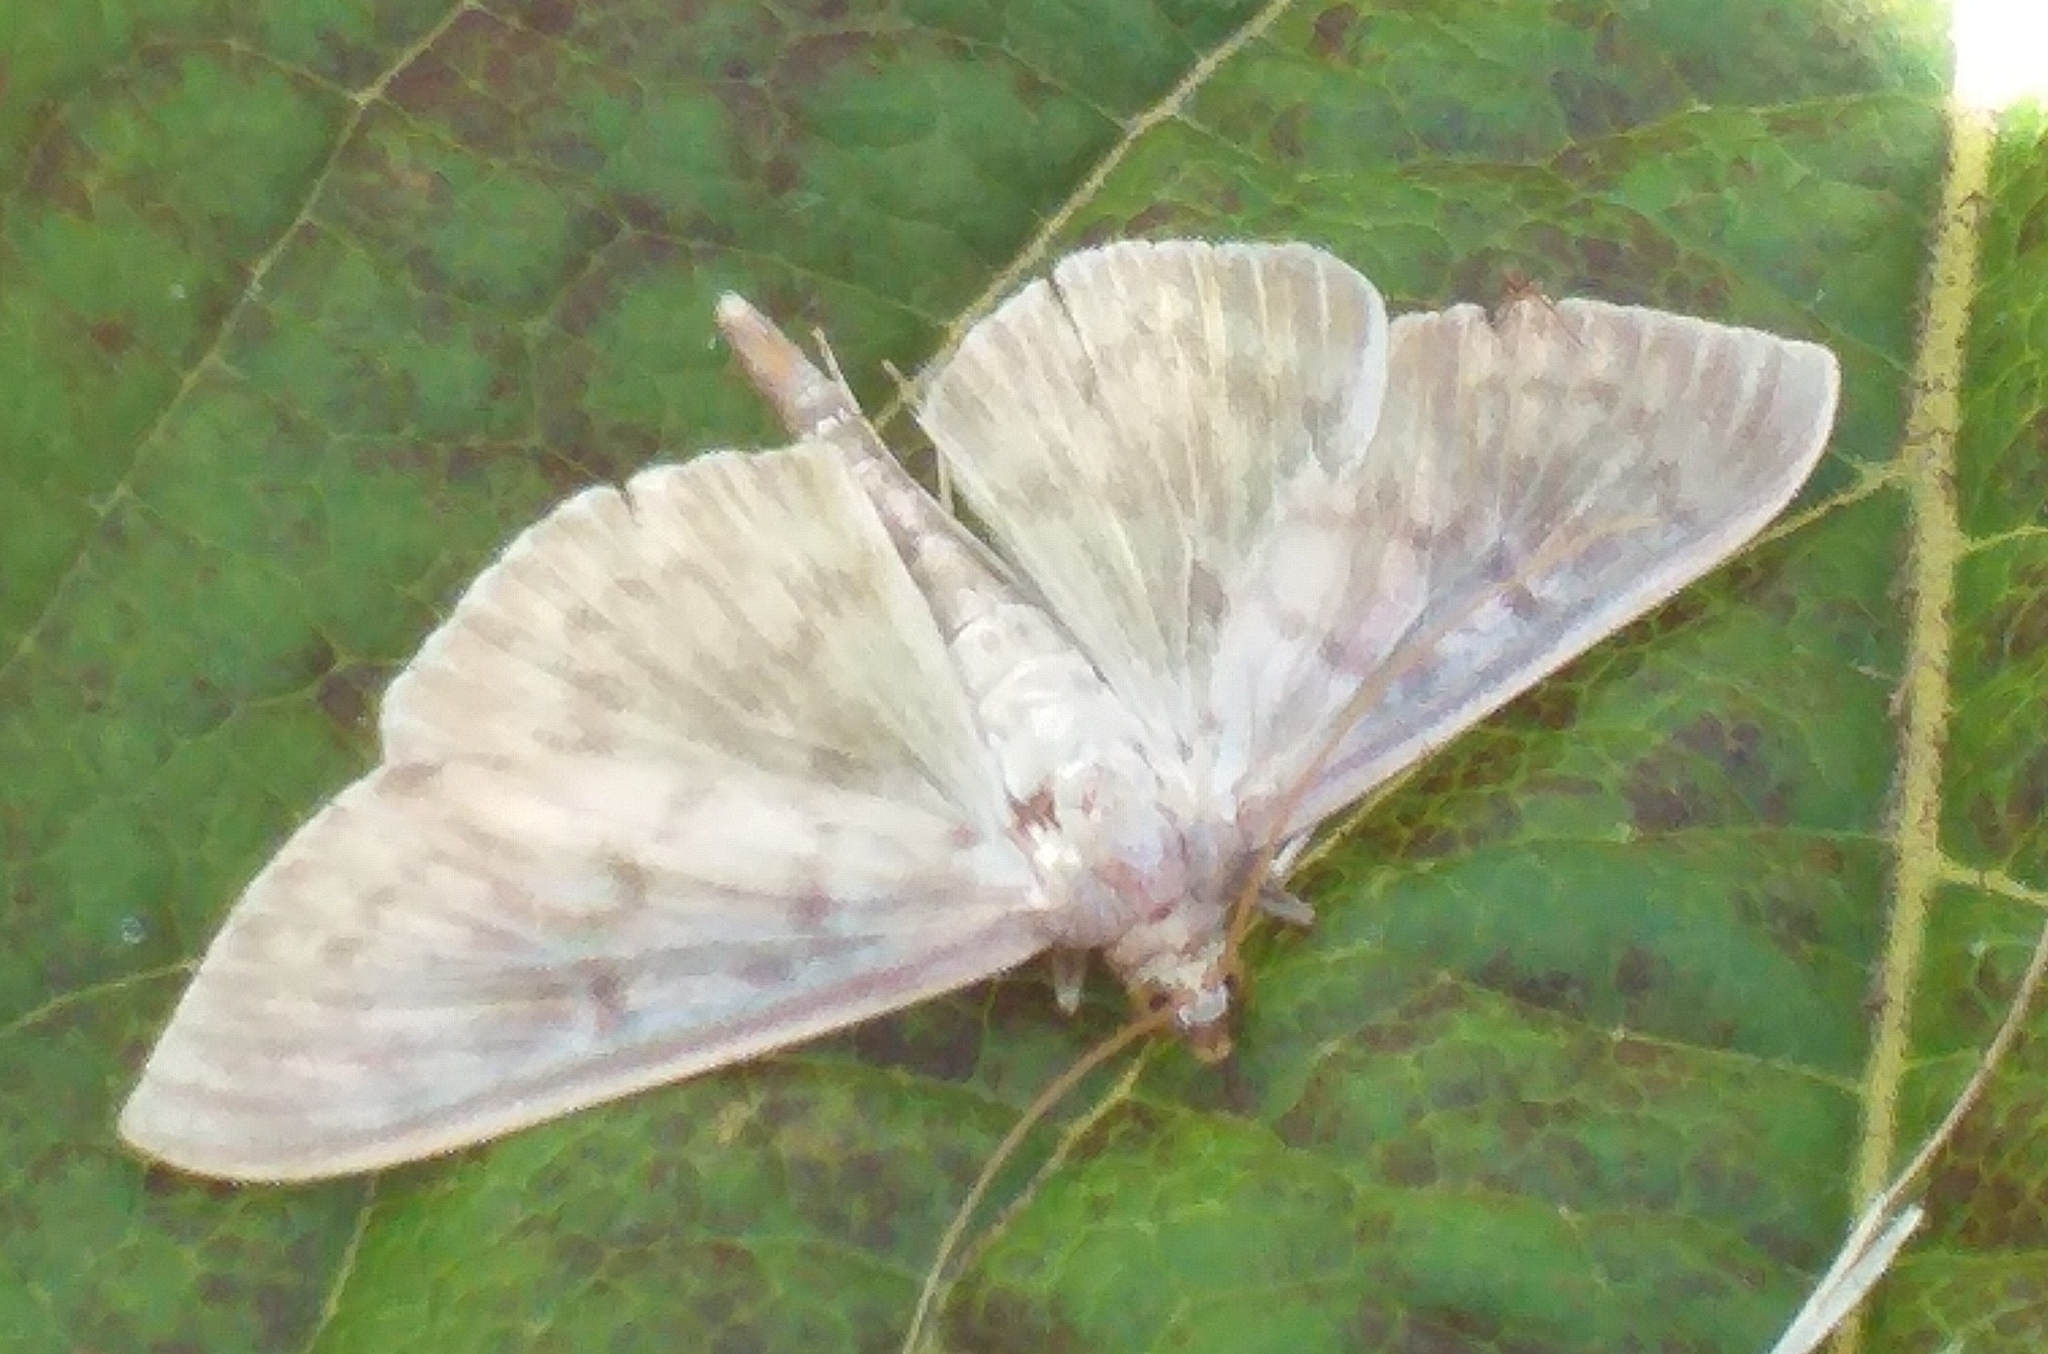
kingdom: Animalia
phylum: Arthropoda
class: Insecta
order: Lepidoptera
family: Crambidae
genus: Patania
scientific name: Patania ruralis
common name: Mother of pearl
